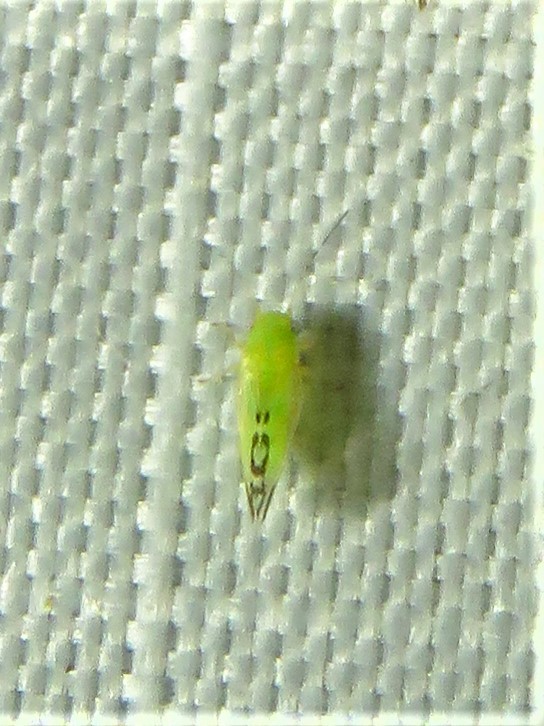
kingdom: Animalia
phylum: Arthropoda
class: Insecta
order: Hemiptera
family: Psyllidae
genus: Heteropsylla
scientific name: Heteropsylla texana
